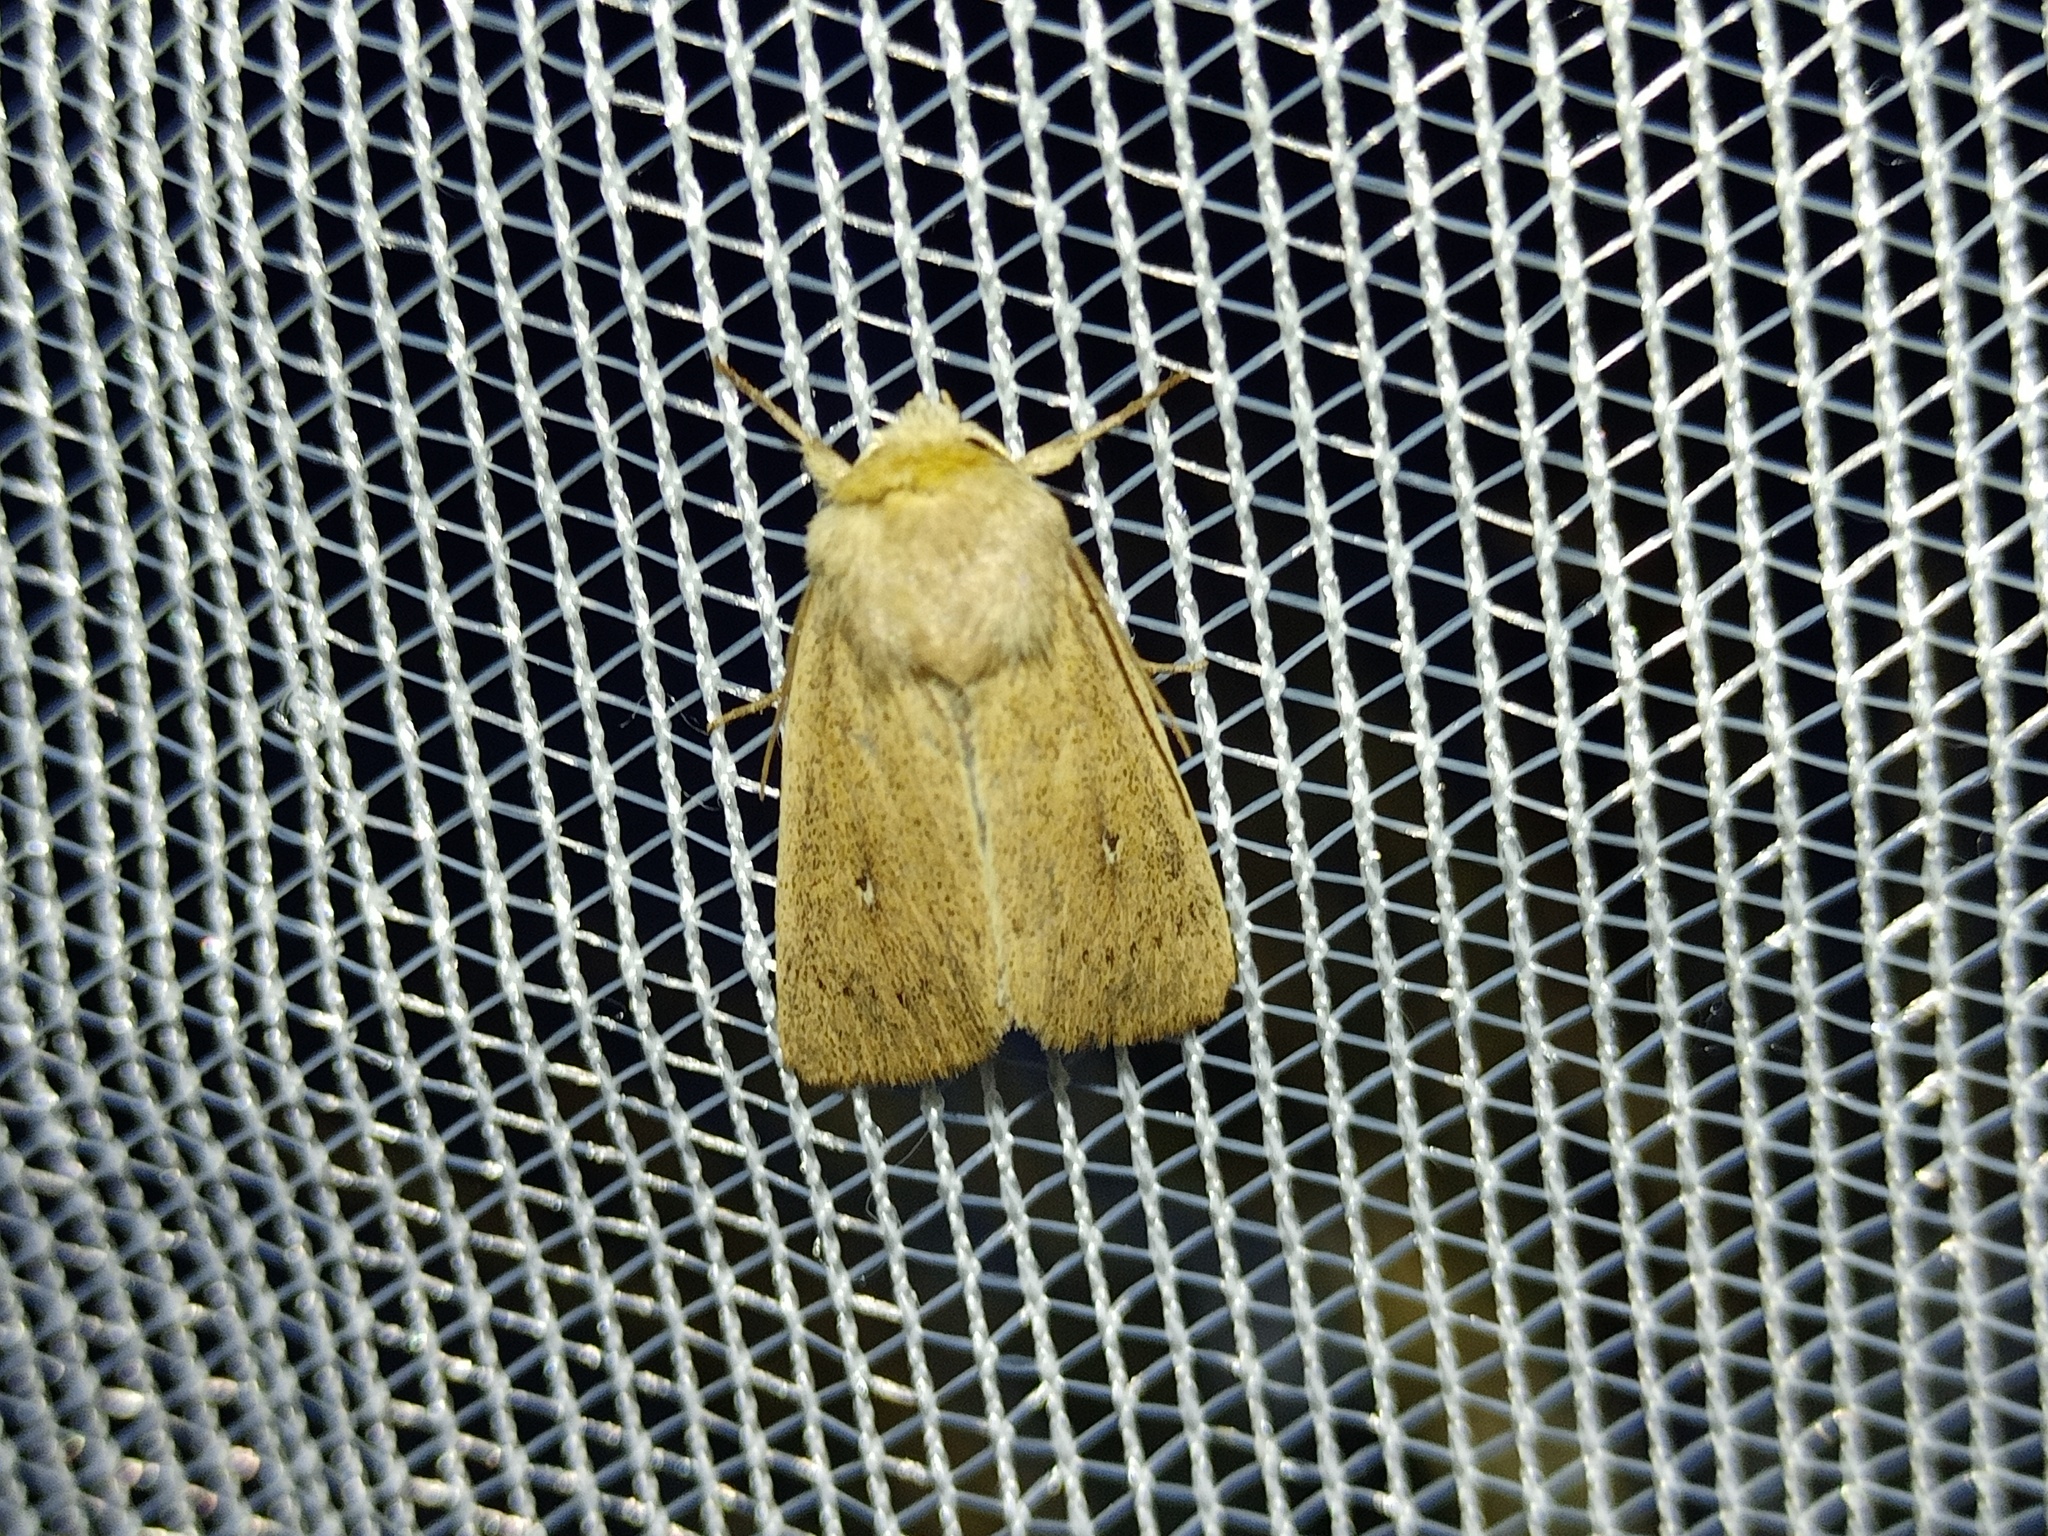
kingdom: Animalia
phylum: Arthropoda
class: Insecta
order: Lepidoptera
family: Noctuidae
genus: Mythimna
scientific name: Mythimna sicula
